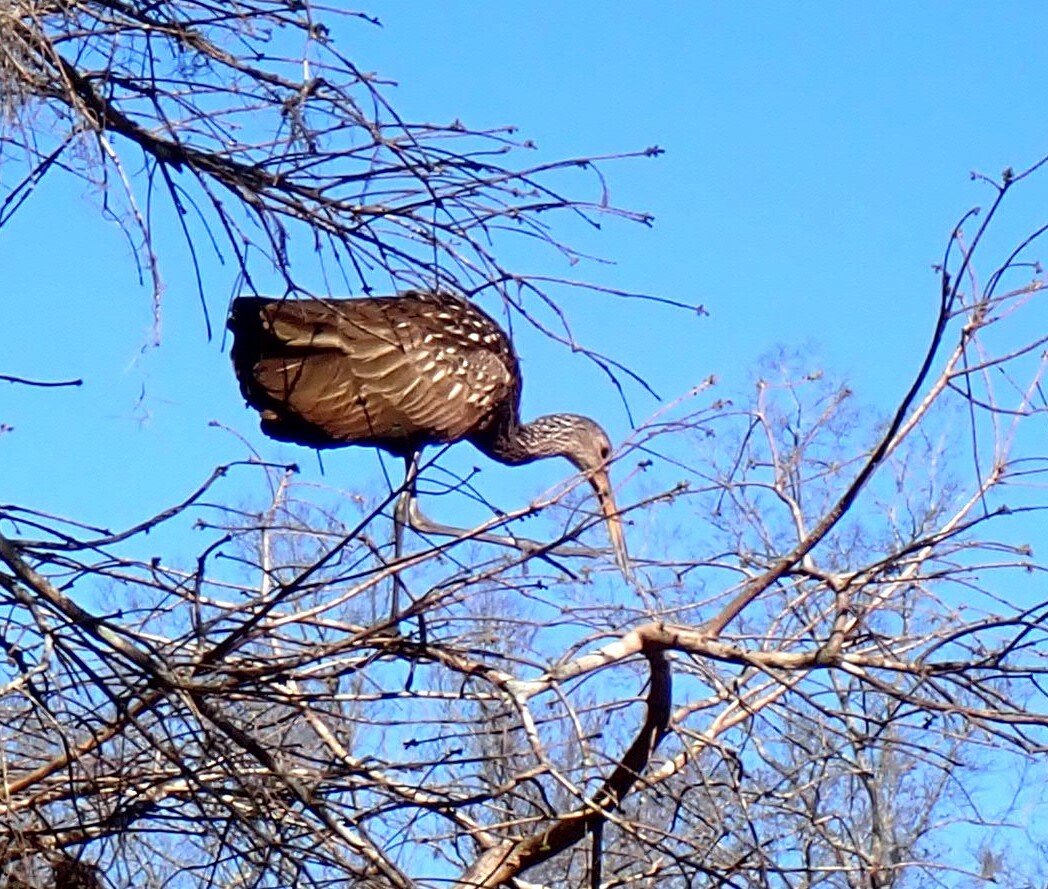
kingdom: Animalia
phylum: Chordata
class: Aves
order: Gruiformes
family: Aramidae
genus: Aramus
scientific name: Aramus guarauna
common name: Limpkin
